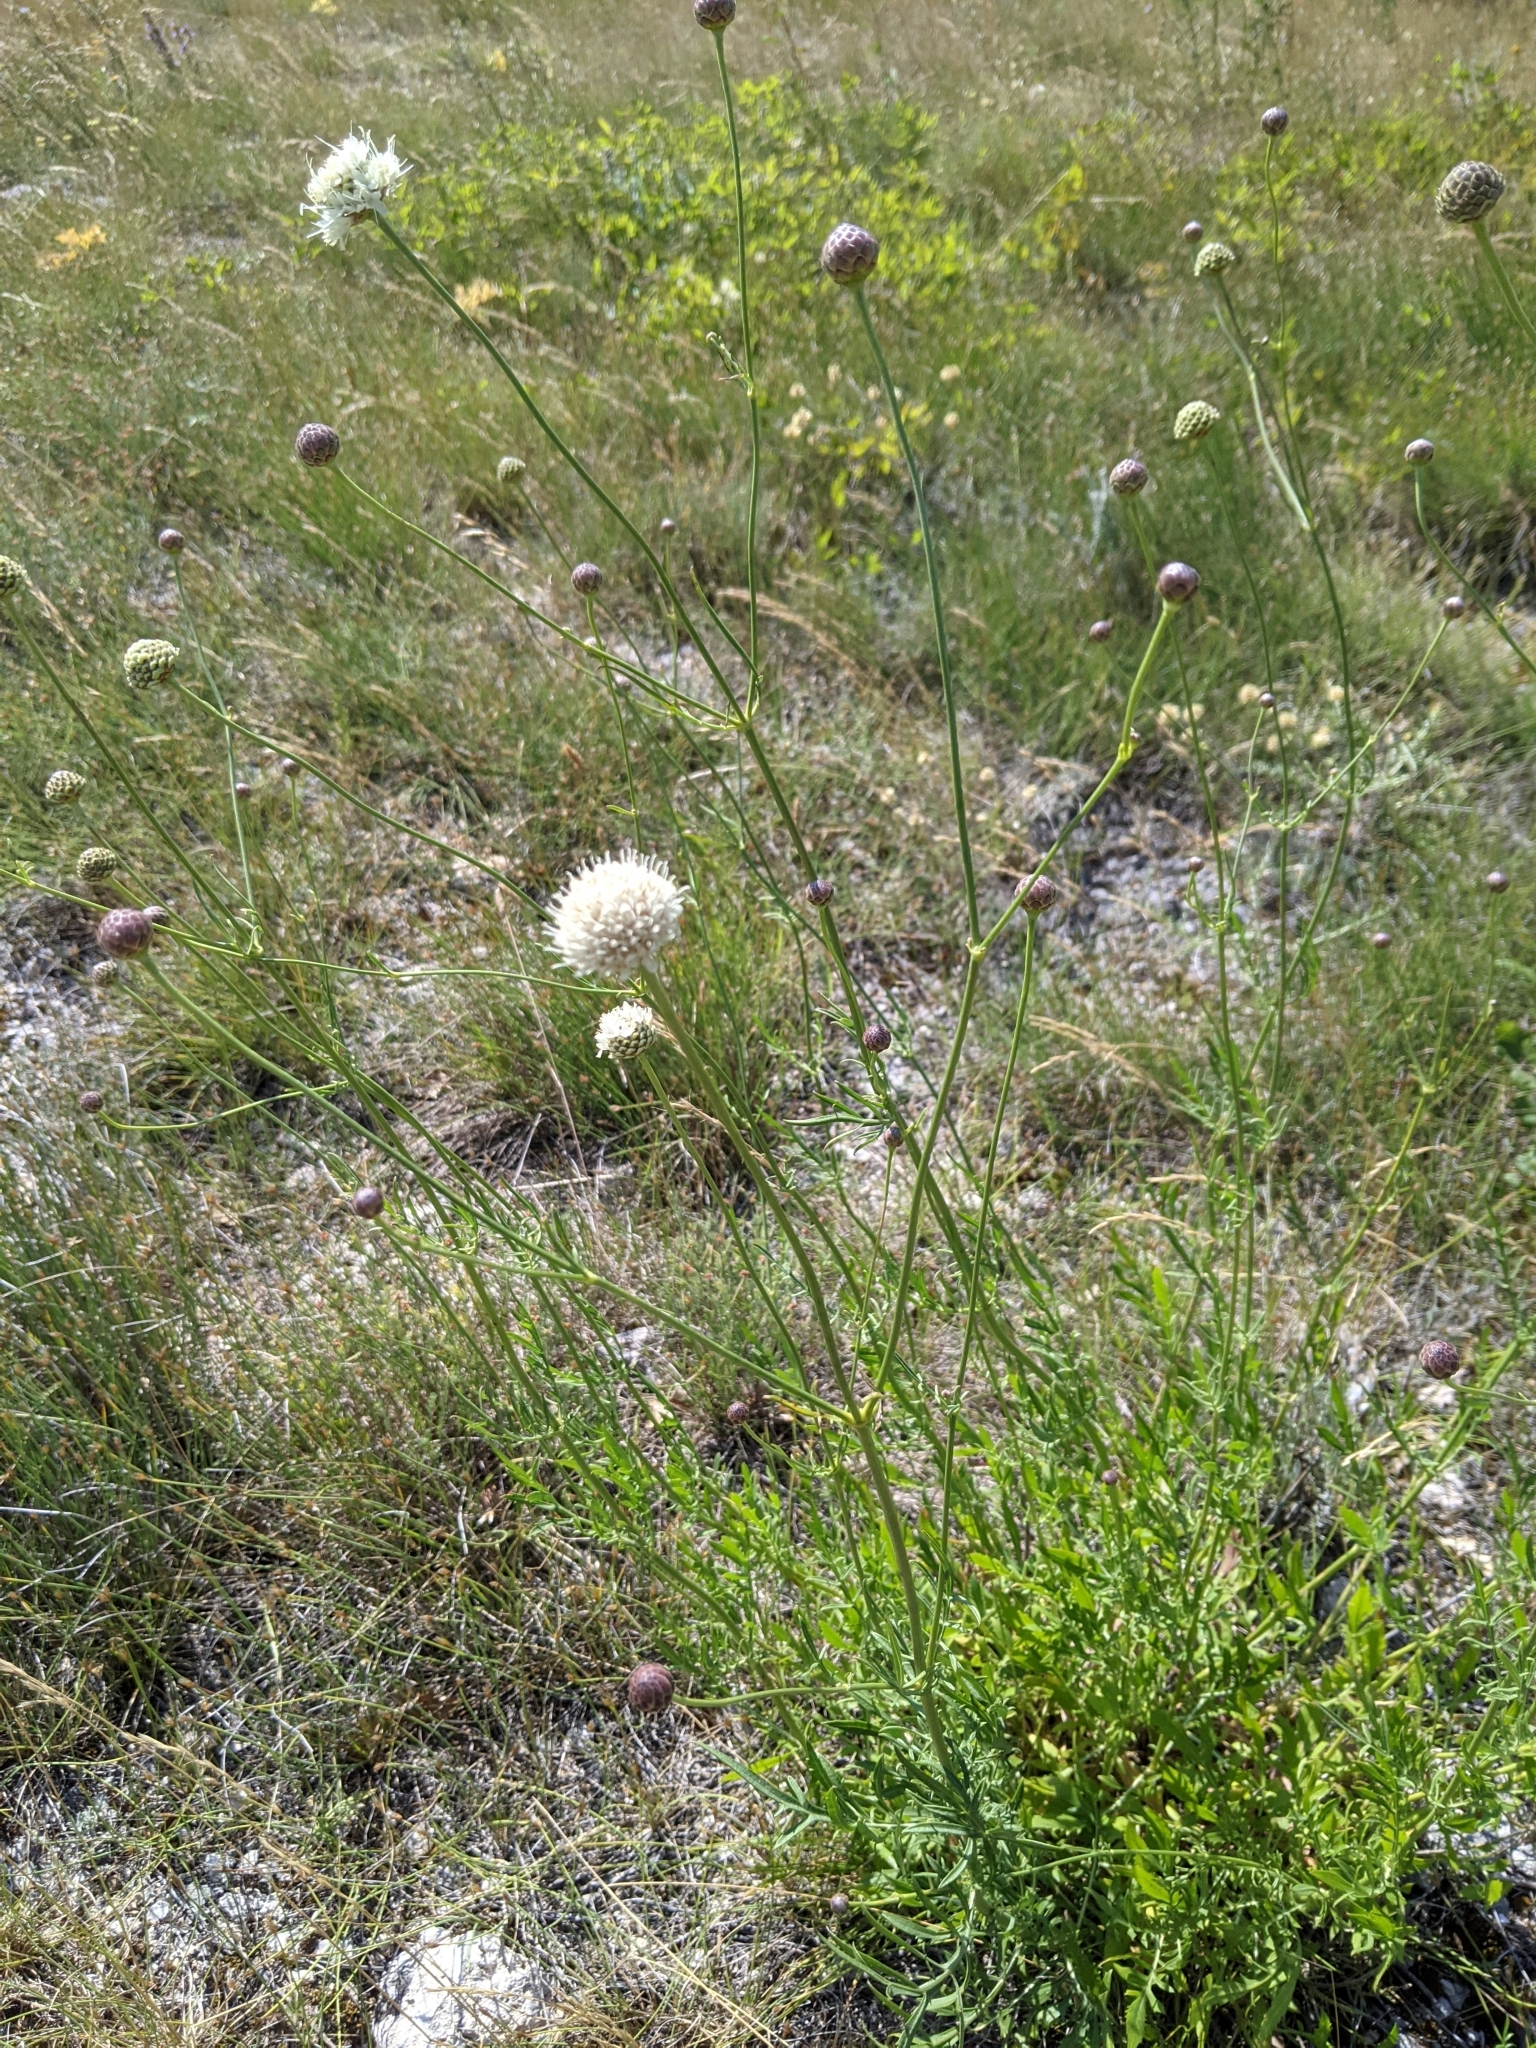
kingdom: Plantae
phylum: Tracheophyta
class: Magnoliopsida
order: Dipsacales
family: Caprifoliaceae
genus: Cephalaria
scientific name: Cephalaria leucantha
